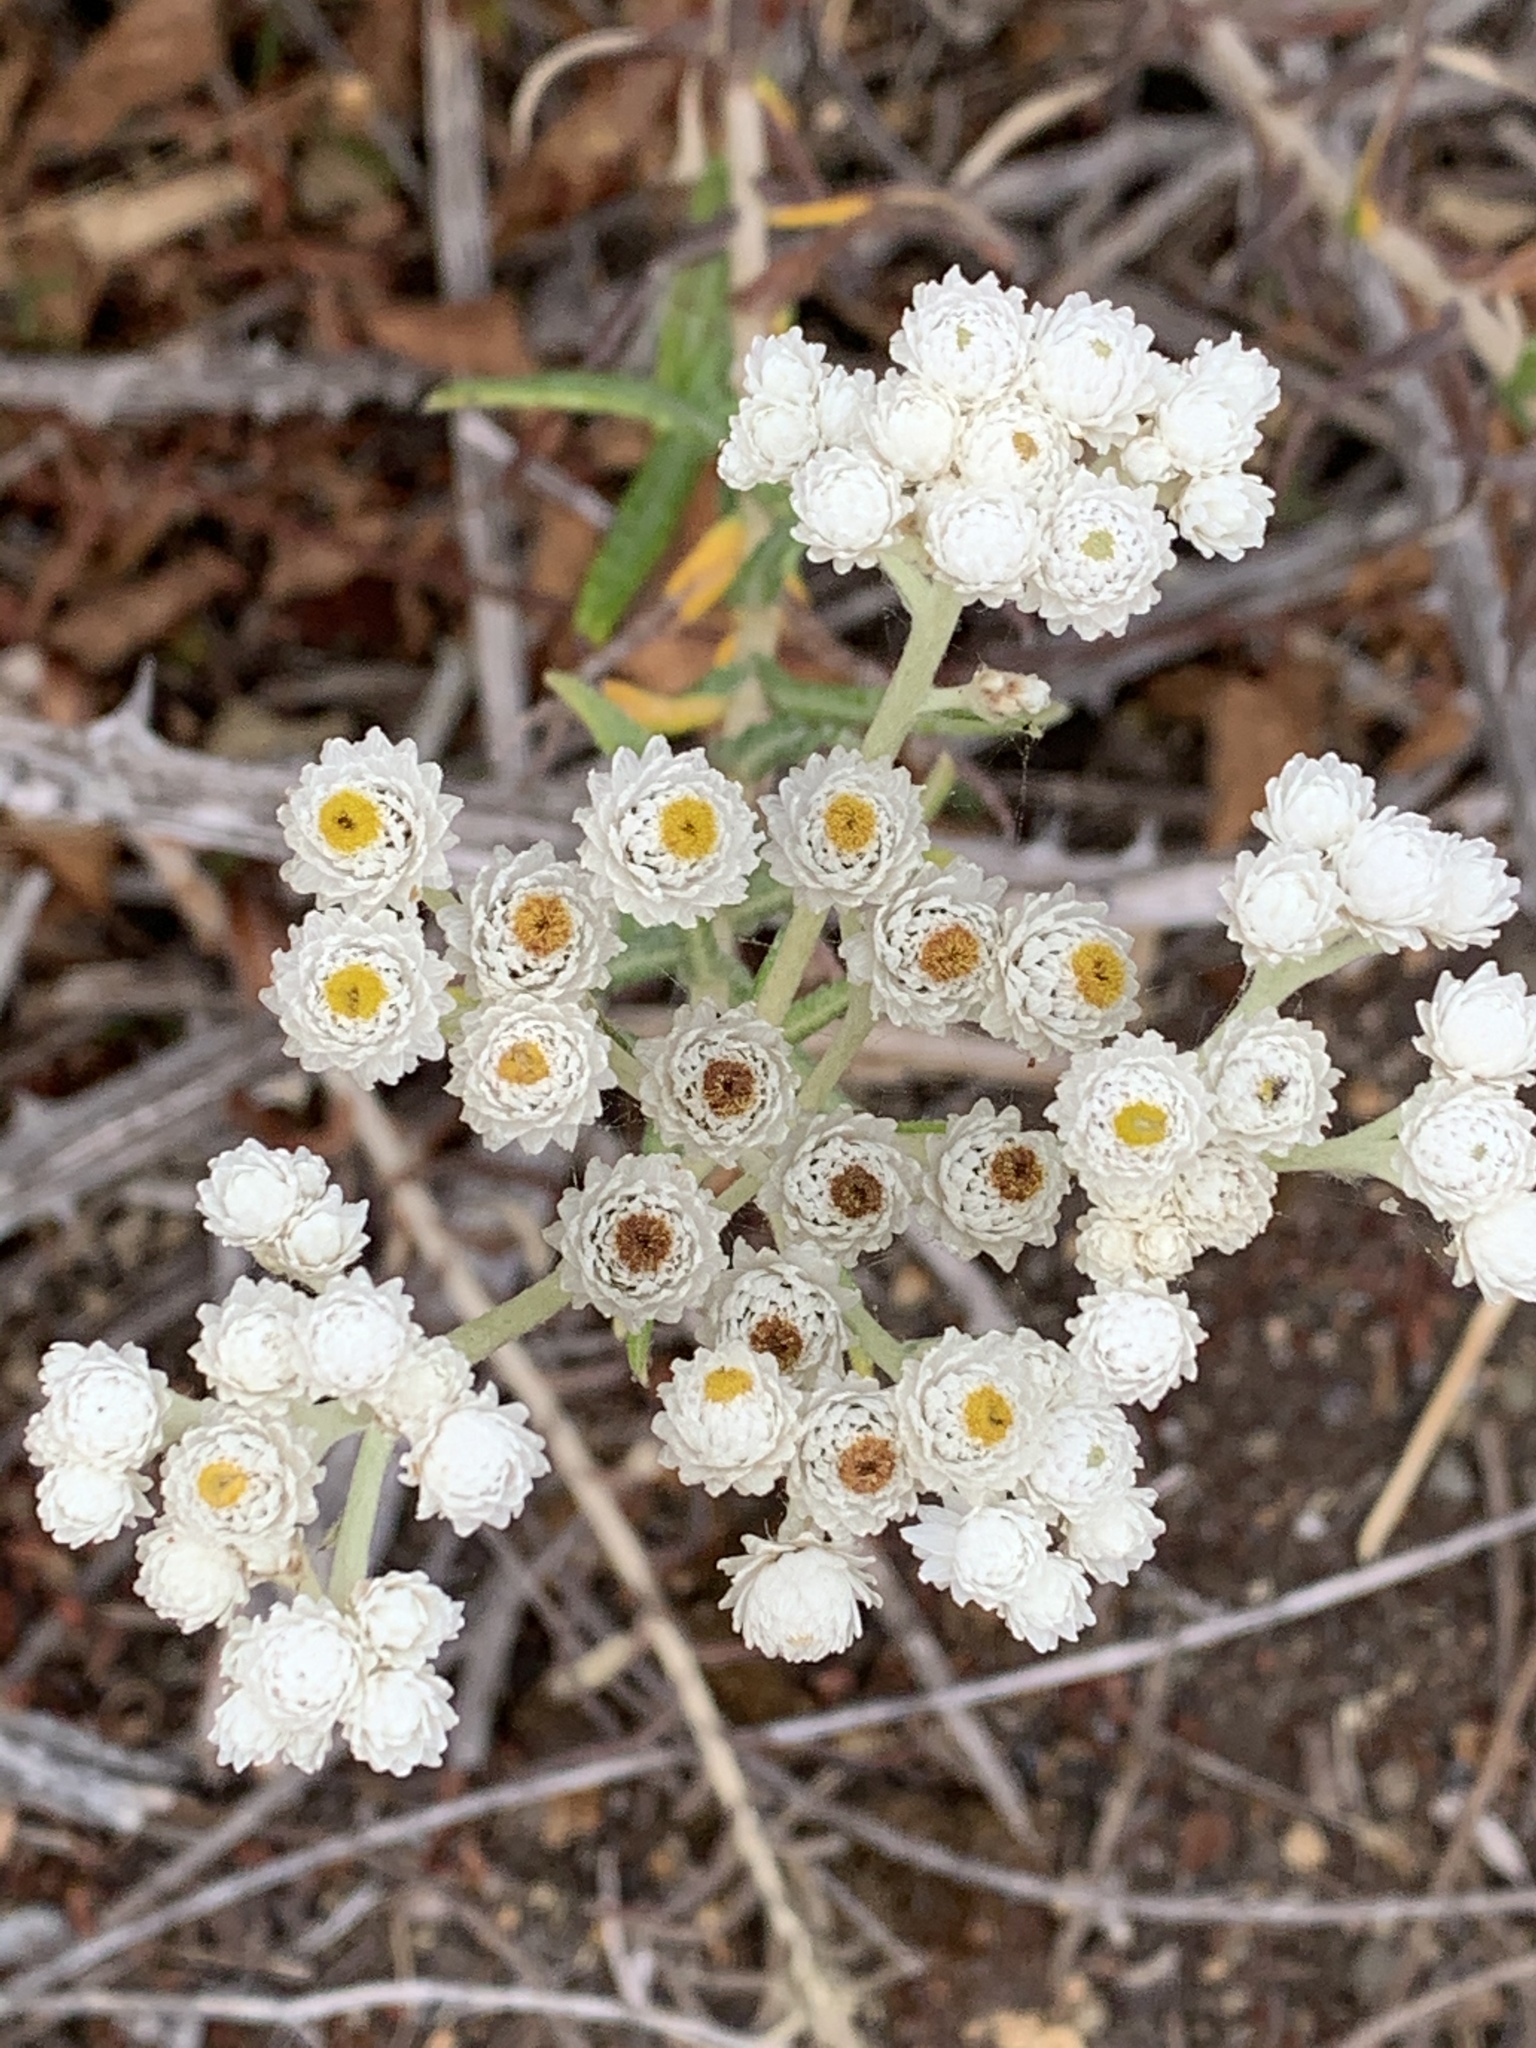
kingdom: Plantae
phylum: Tracheophyta
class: Magnoliopsida
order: Asterales
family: Asteraceae
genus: Anaphalis
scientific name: Anaphalis margaritacea
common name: Pearly everlasting
